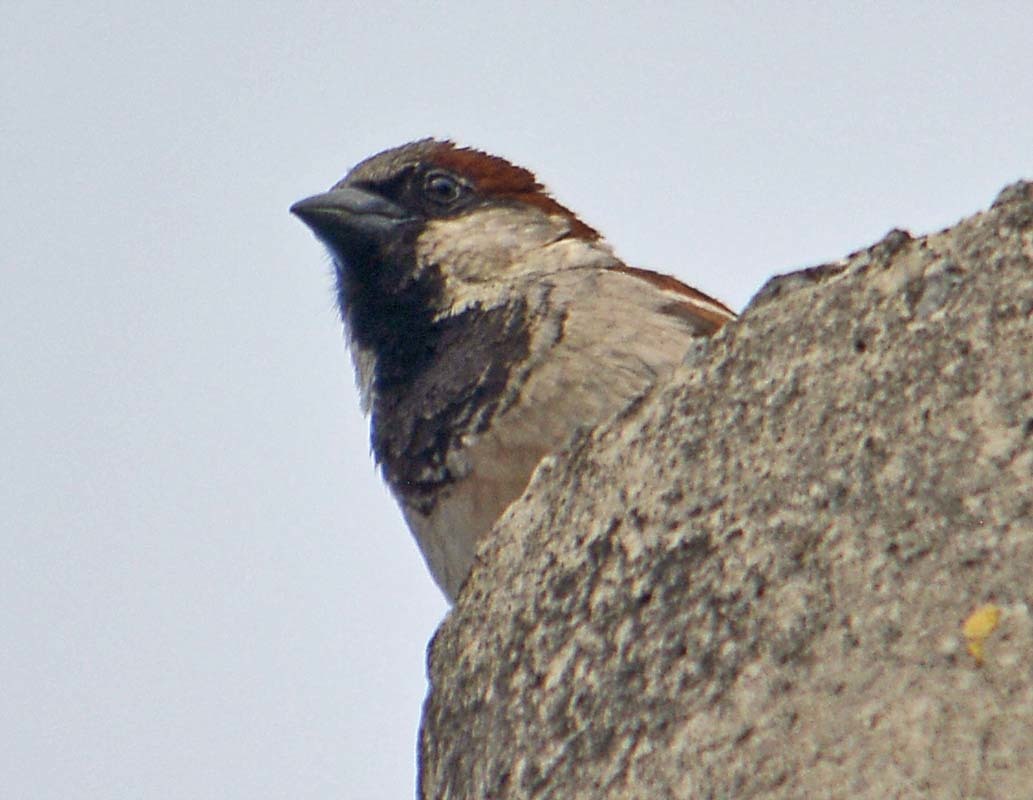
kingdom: Animalia
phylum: Chordata
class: Aves
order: Passeriformes
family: Passeridae
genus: Passer
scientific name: Passer domesticus
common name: House sparrow
